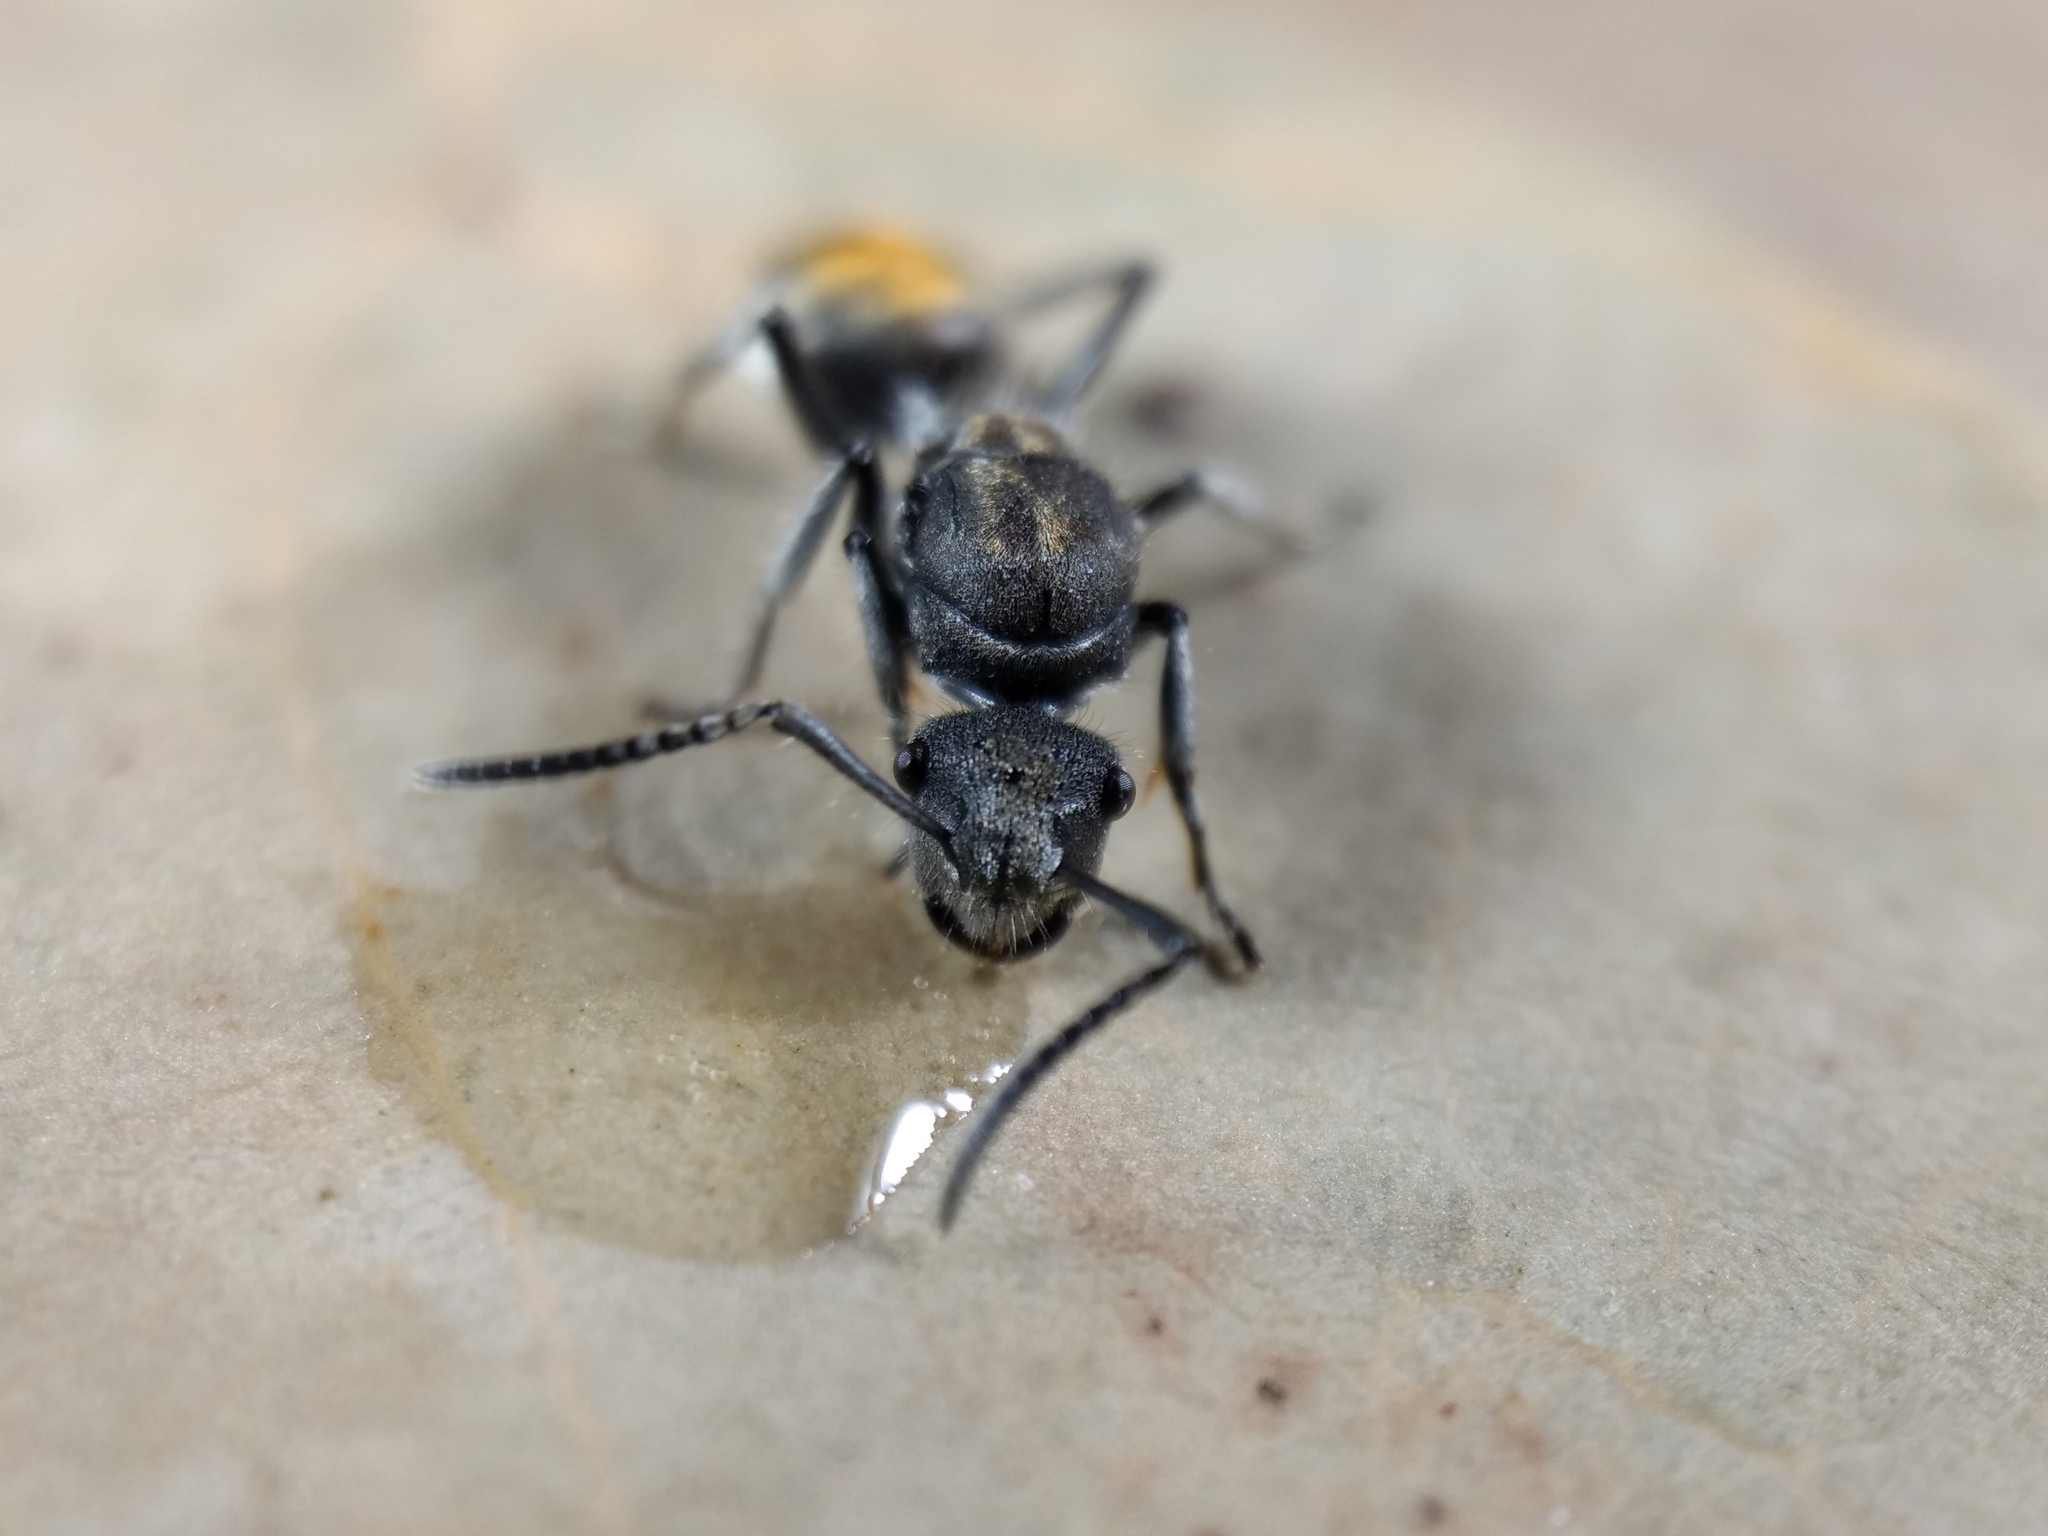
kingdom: Animalia
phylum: Arthropoda
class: Insecta
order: Hymenoptera
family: Formicidae
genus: Polyrhachis
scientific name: Polyrhachis vermiculosa
